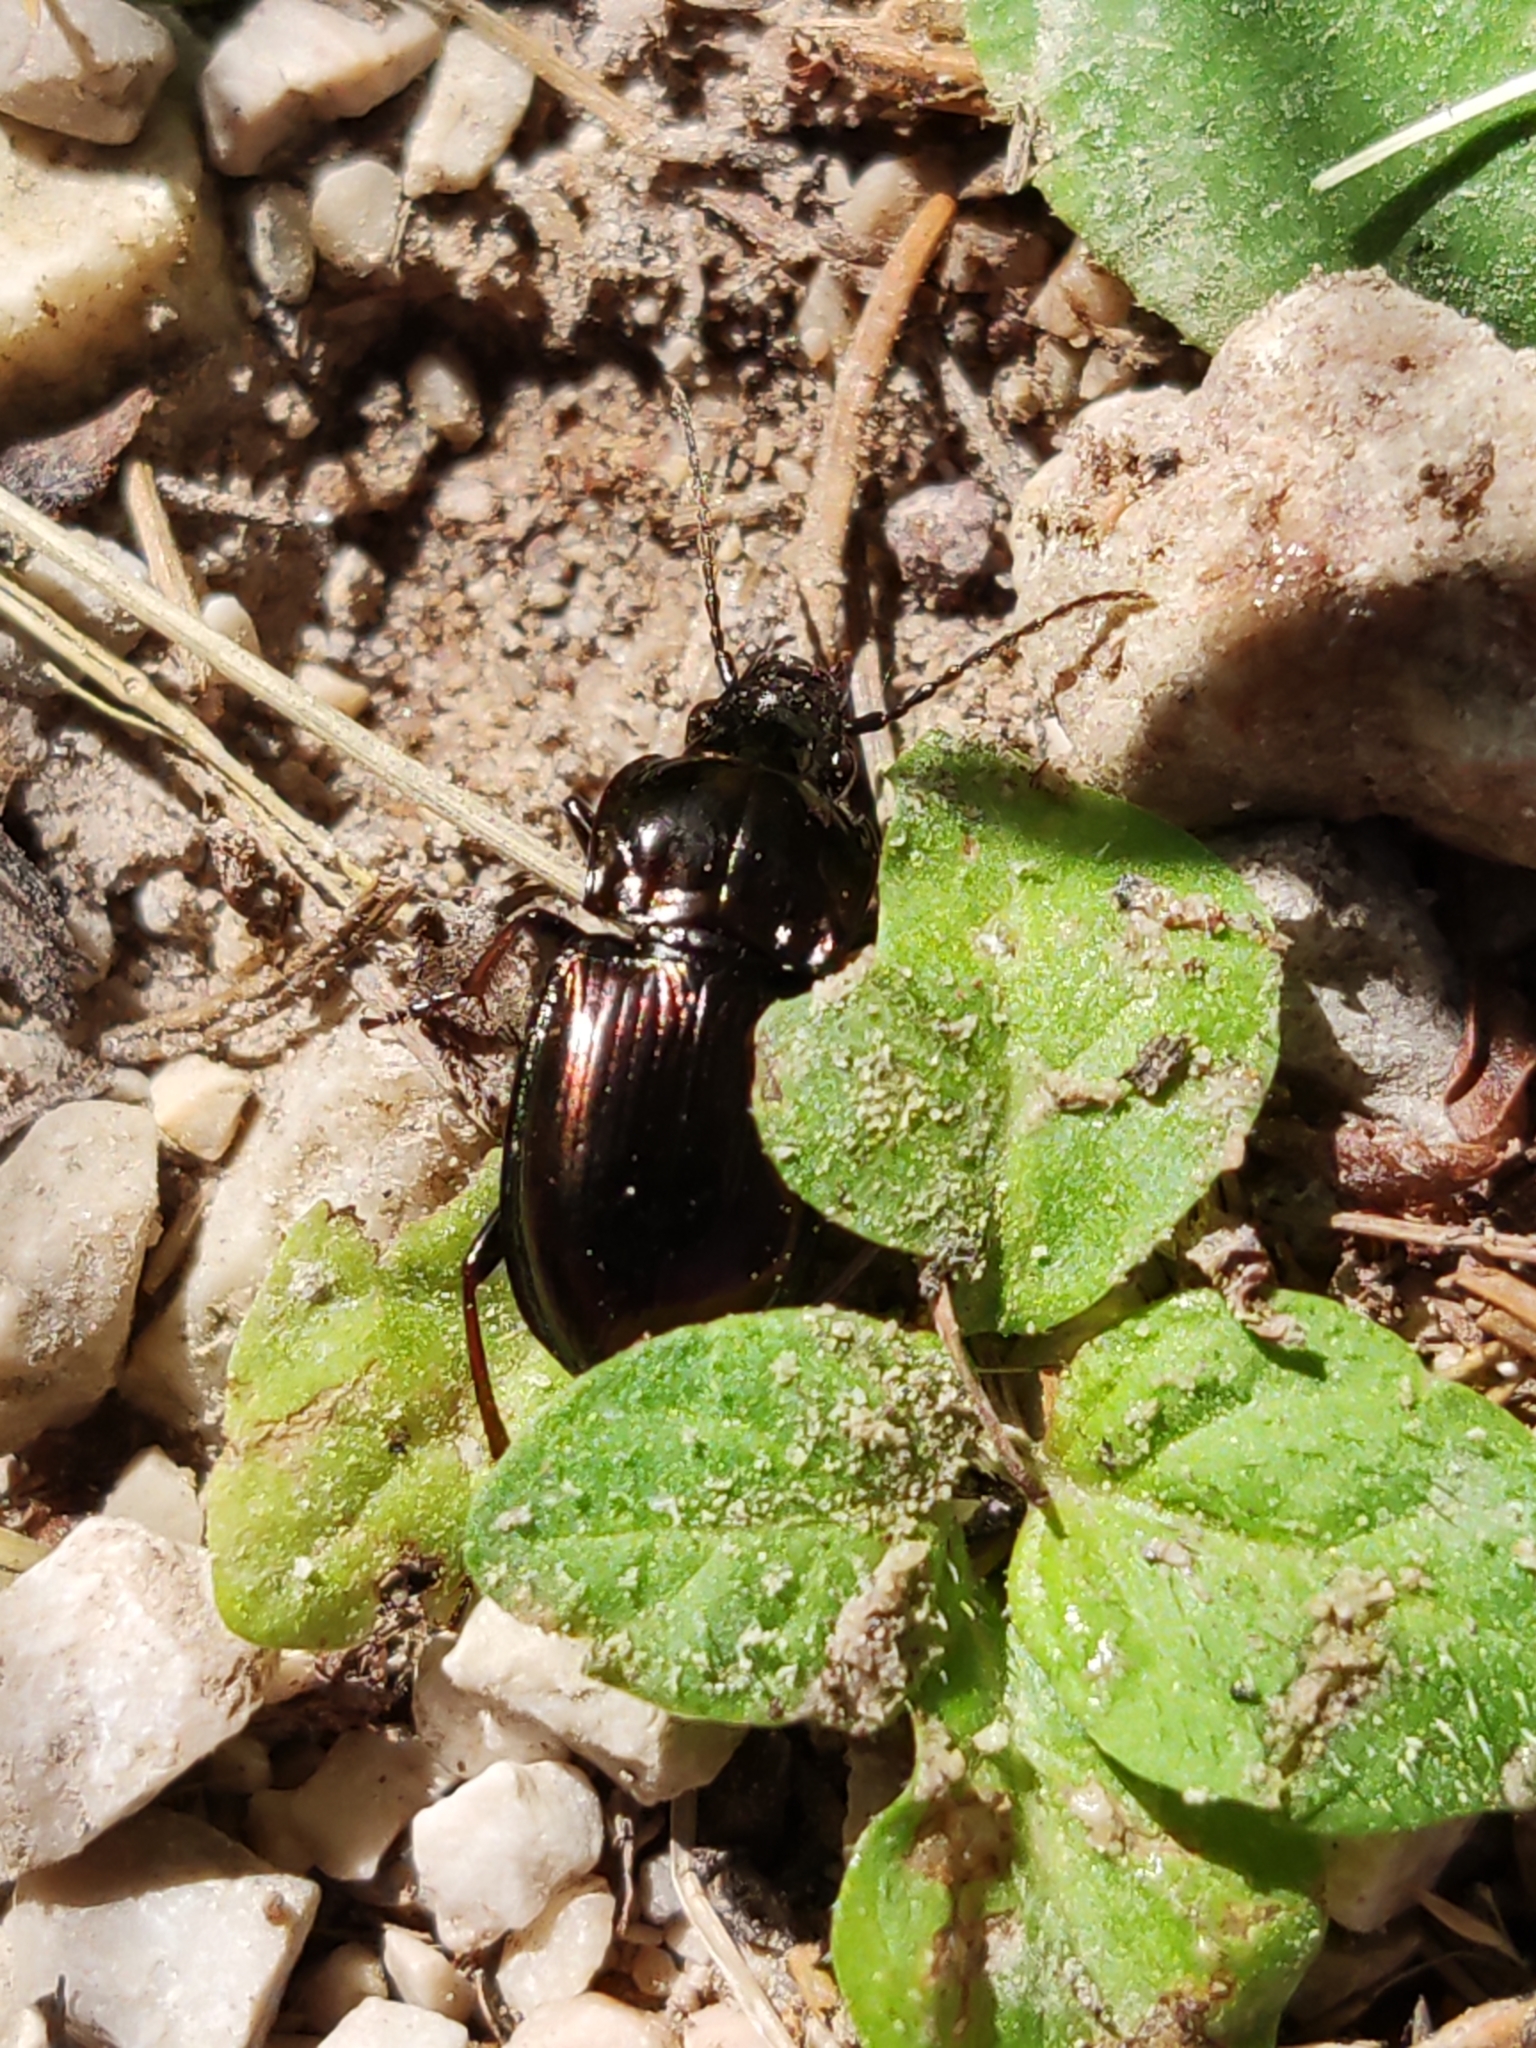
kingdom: Animalia
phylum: Arthropoda
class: Insecta
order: Coleoptera
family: Carabidae
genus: Pterostichus
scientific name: Pterostichus burmeisteri
